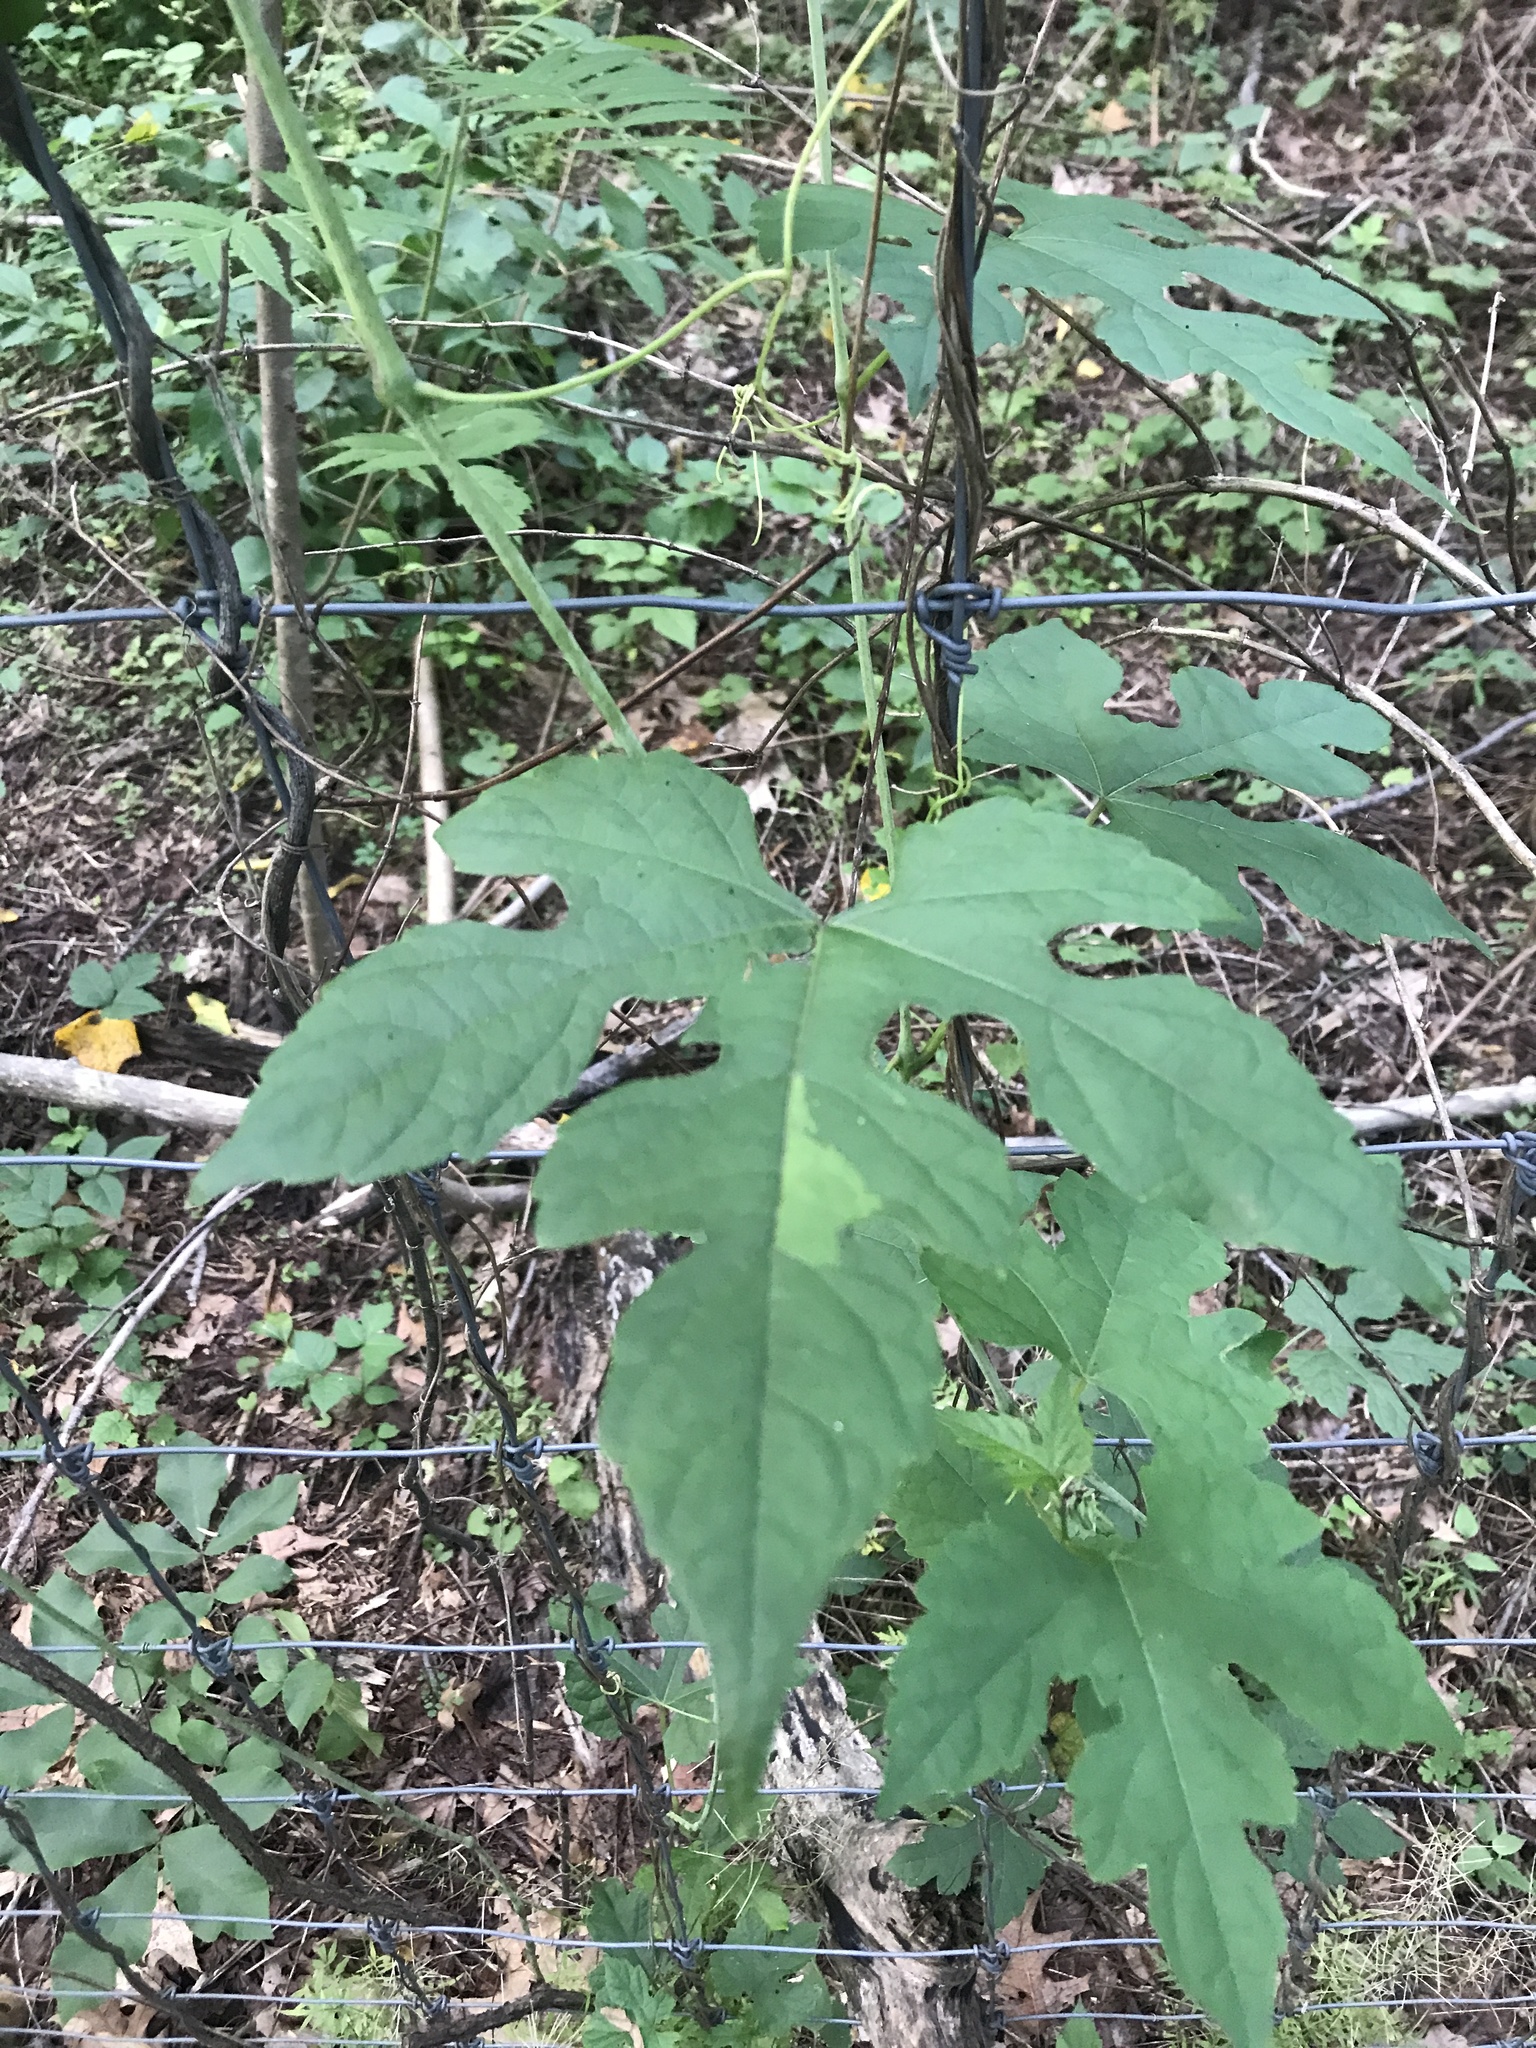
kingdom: Plantae
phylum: Tracheophyta
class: Magnoliopsida
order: Vitales
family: Vitaceae
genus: Ampelopsis
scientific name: Ampelopsis glandulosa
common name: Amur peppervine
